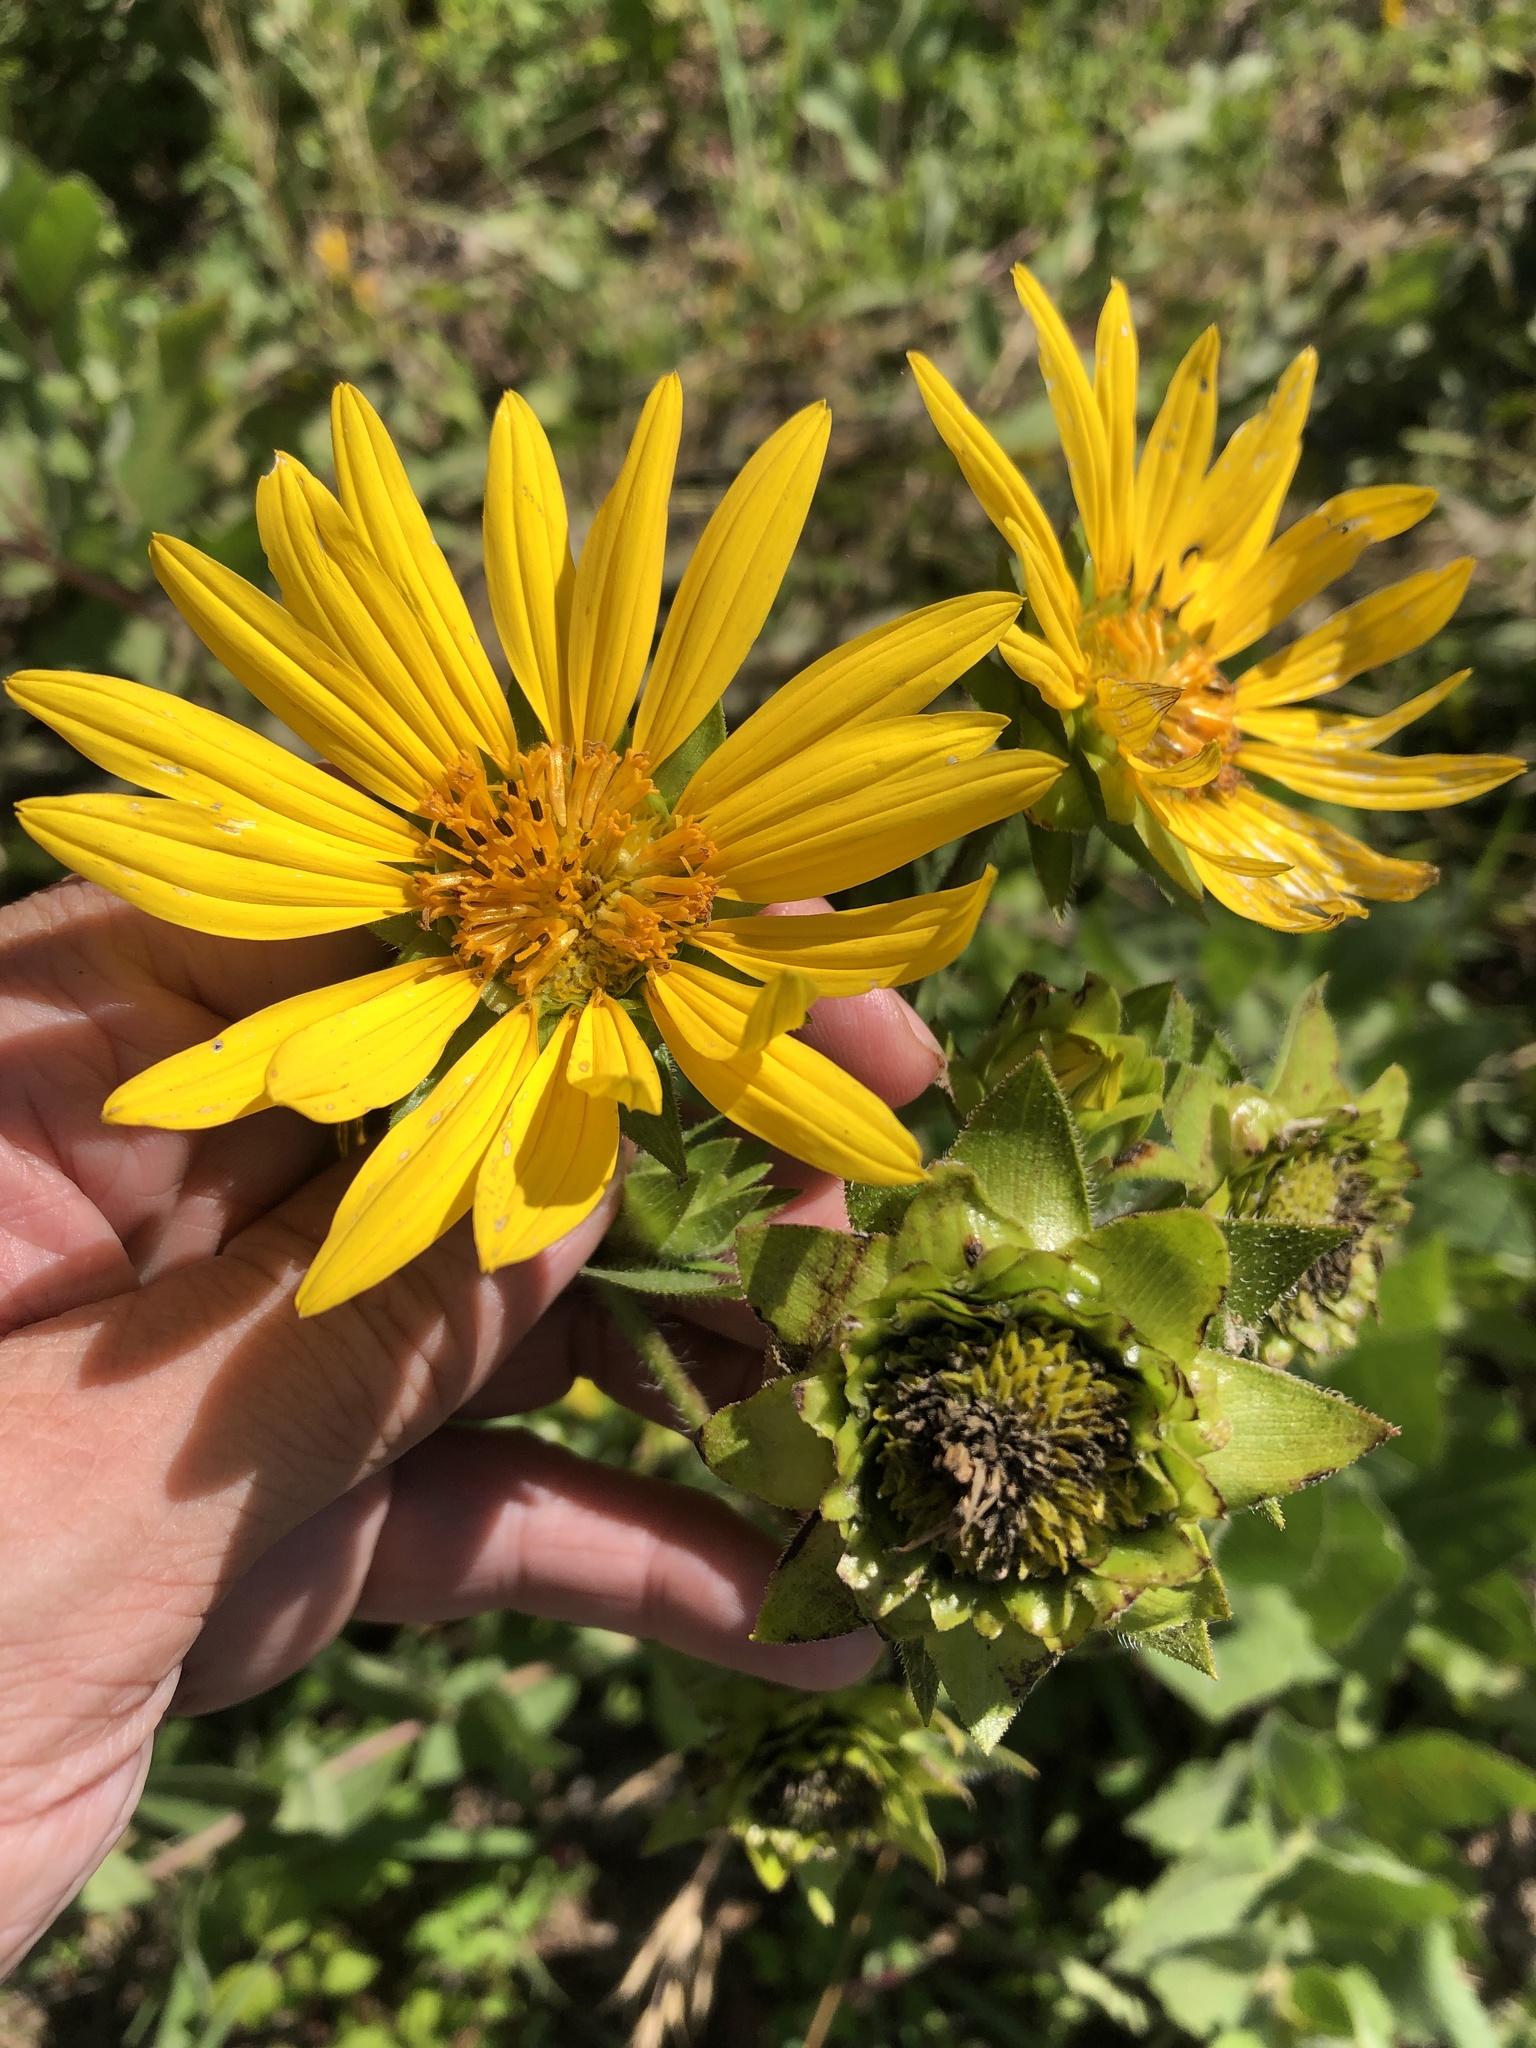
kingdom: Plantae
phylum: Tracheophyta
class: Magnoliopsida
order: Asterales
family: Asteraceae
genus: Silphium
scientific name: Silphium radula
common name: Roughleaf rosinweed
